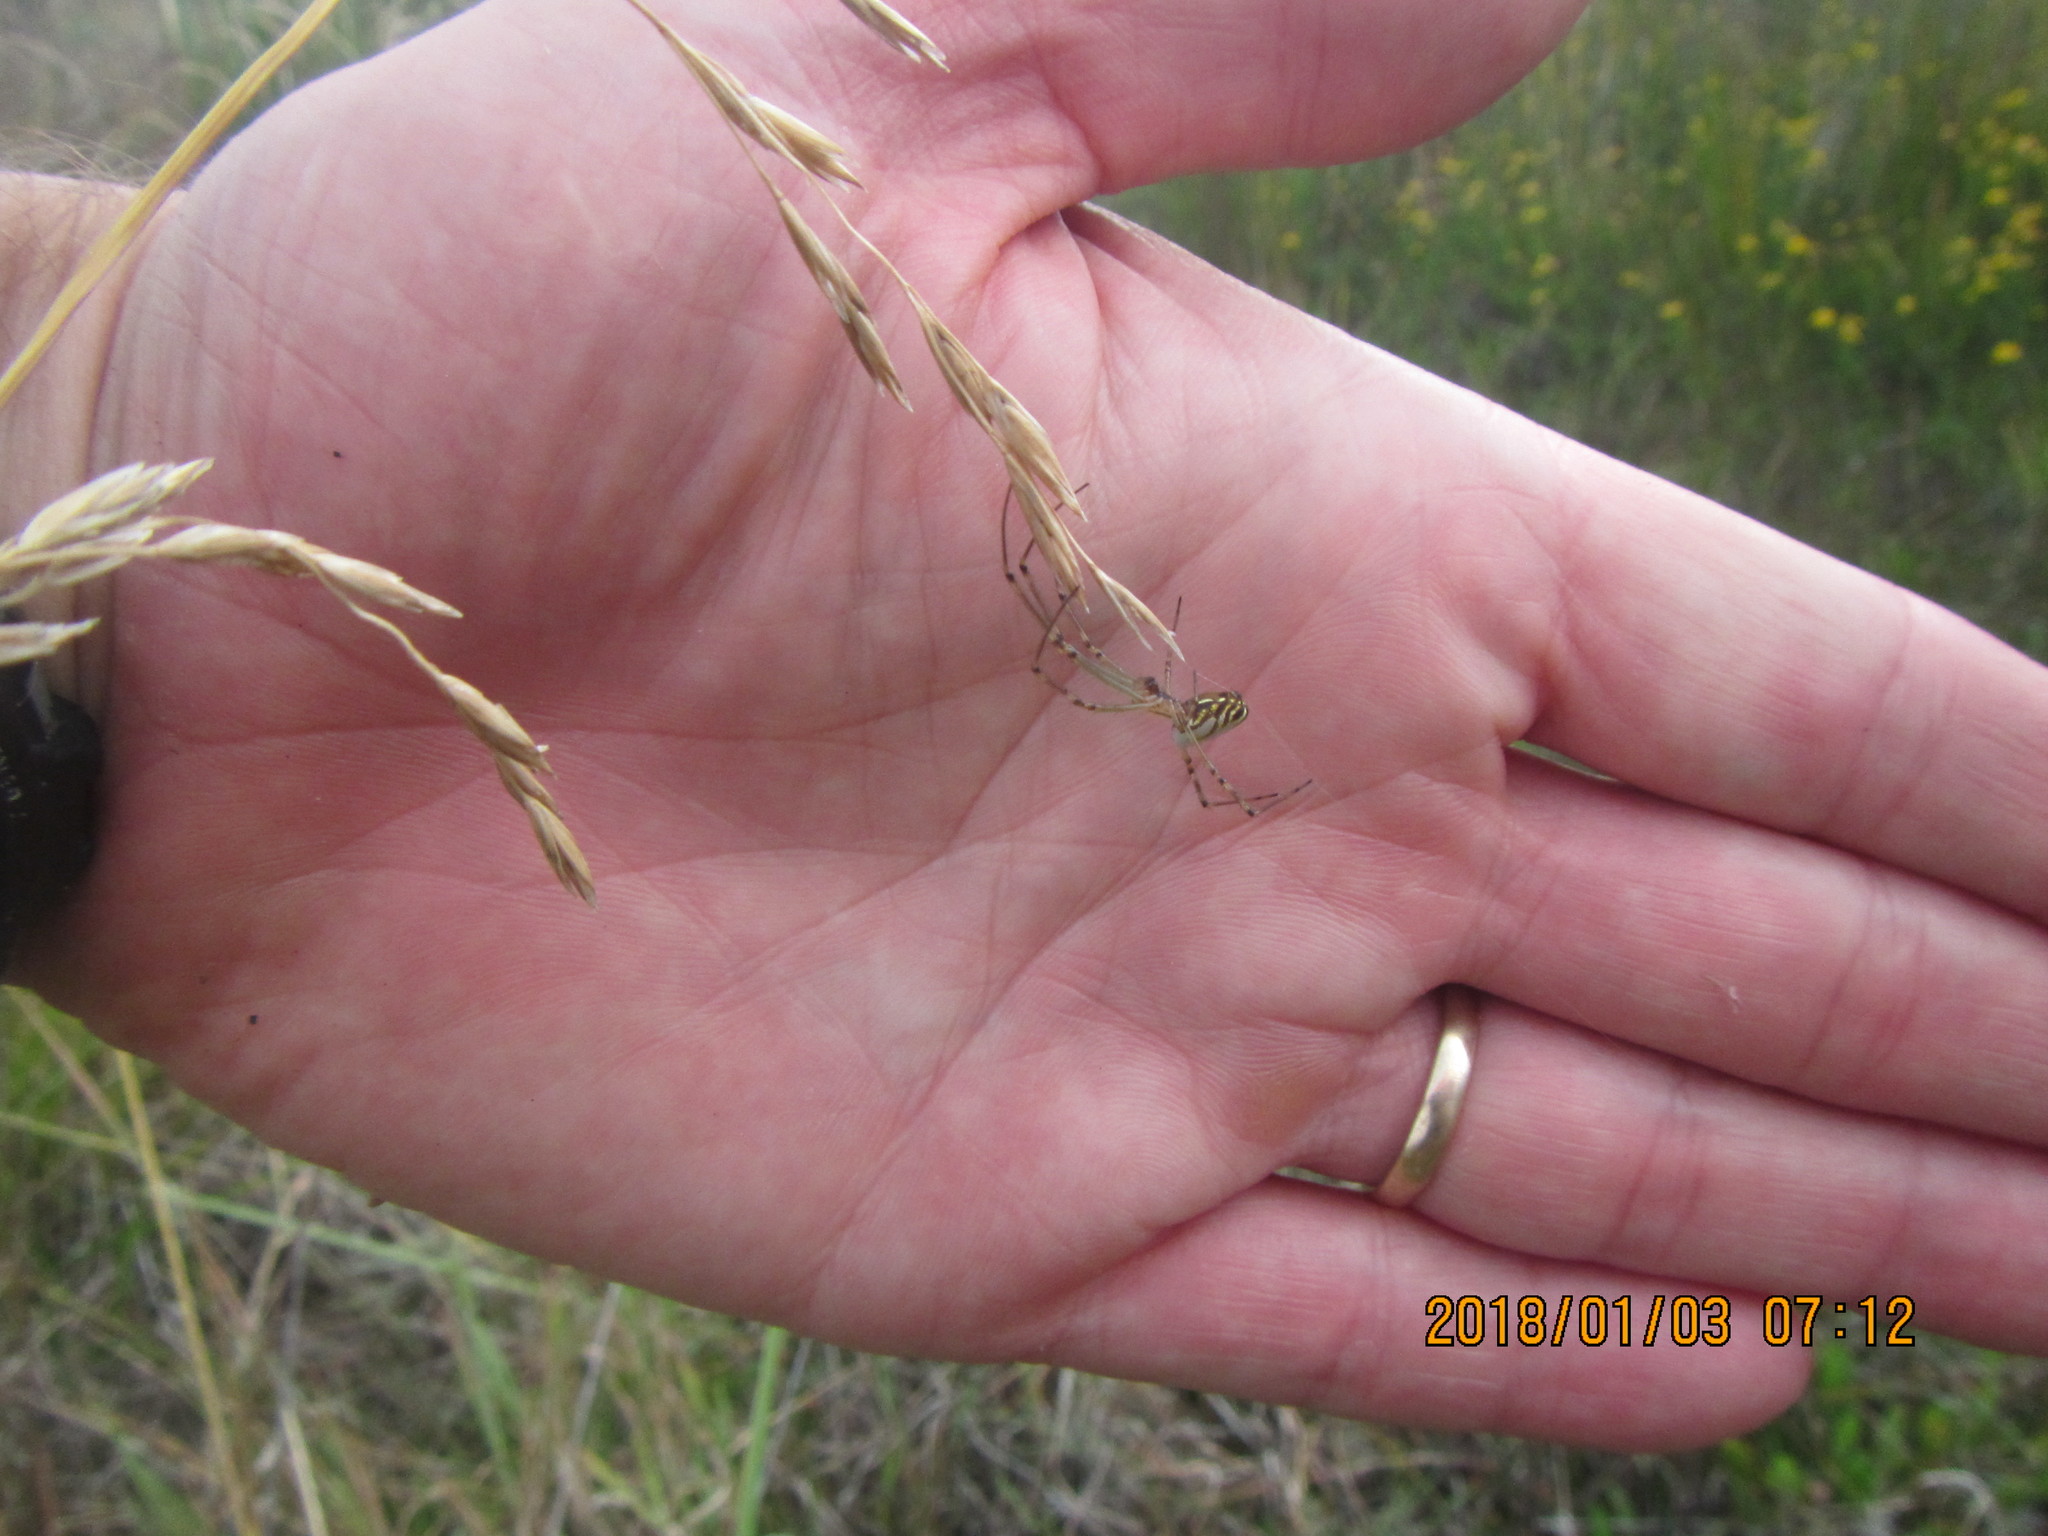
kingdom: Animalia
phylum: Arthropoda
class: Arachnida
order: Araneae
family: Tetragnathidae
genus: Leucauge
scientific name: Leucauge dromedaria
